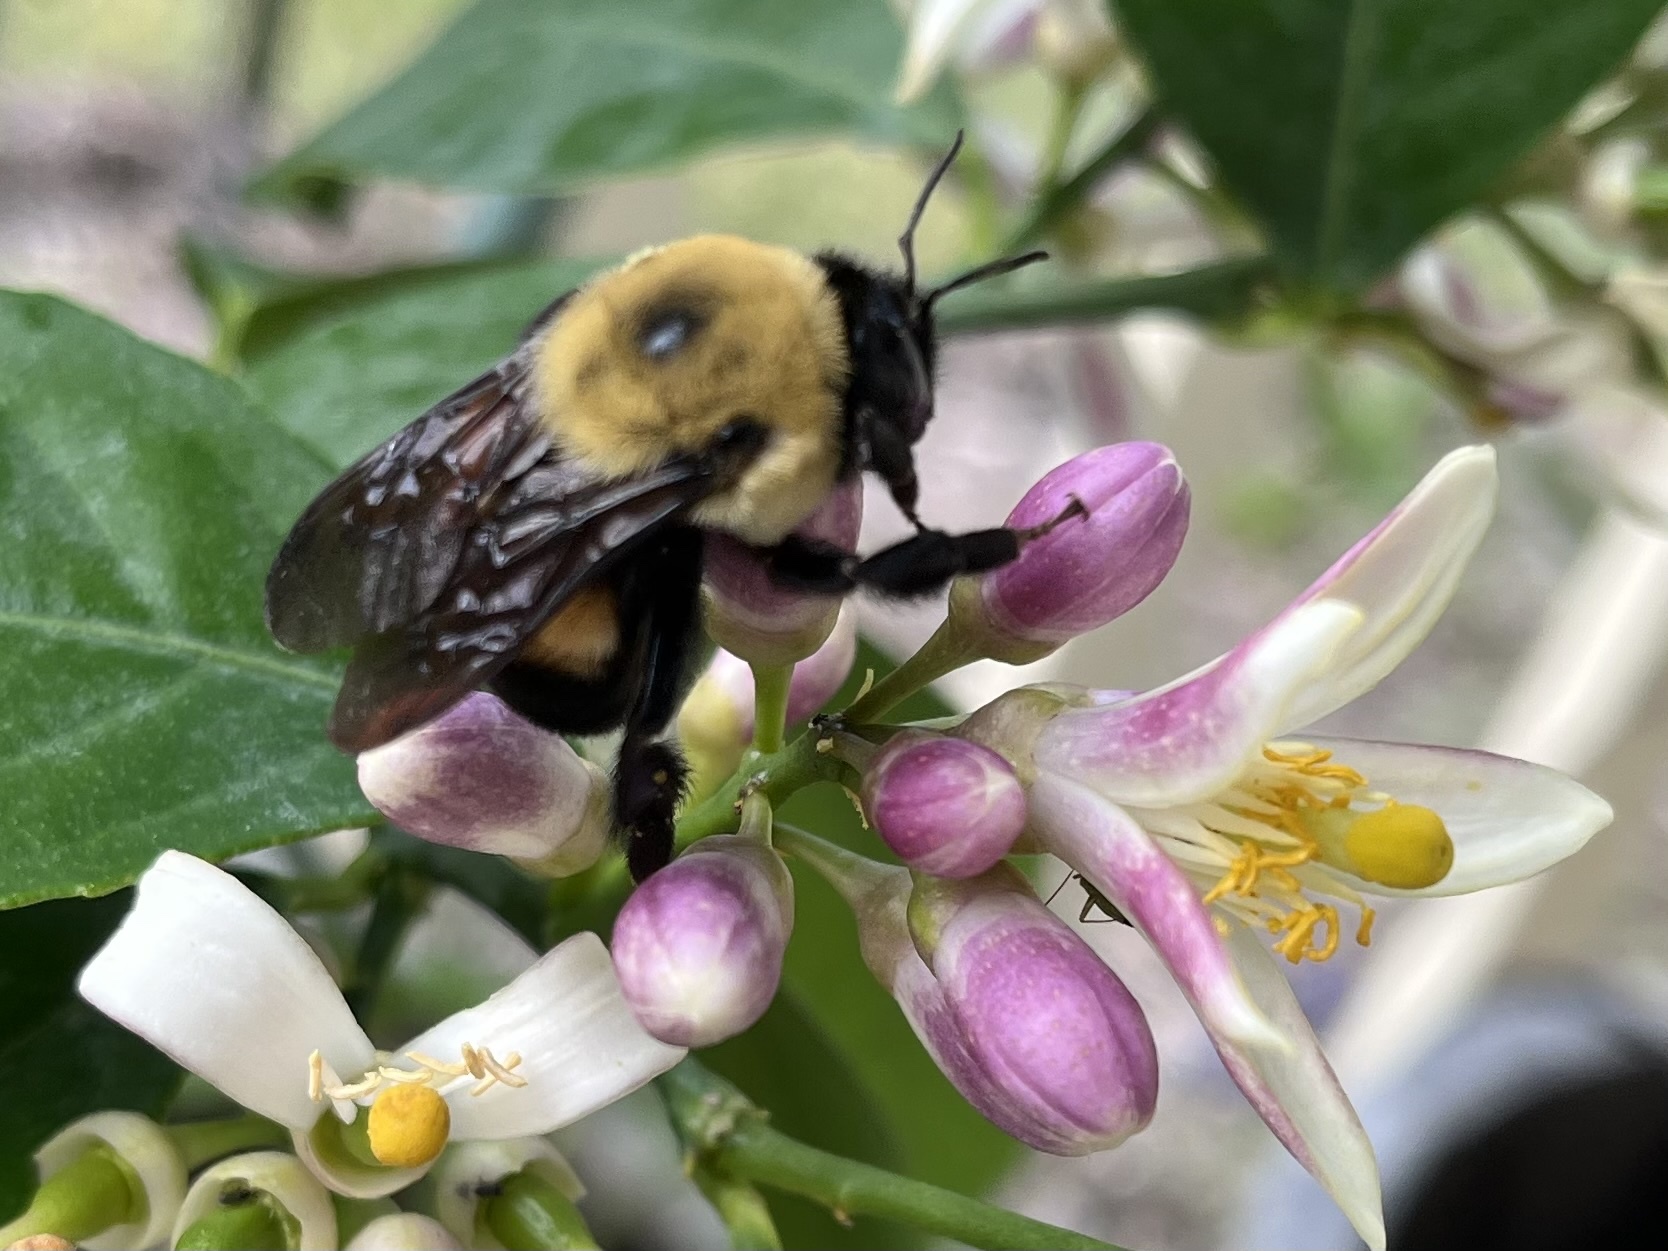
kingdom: Animalia
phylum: Arthropoda
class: Insecta
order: Hymenoptera
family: Apidae
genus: Bombus
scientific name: Bombus griseocollis
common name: Brown-belted bumble bee
